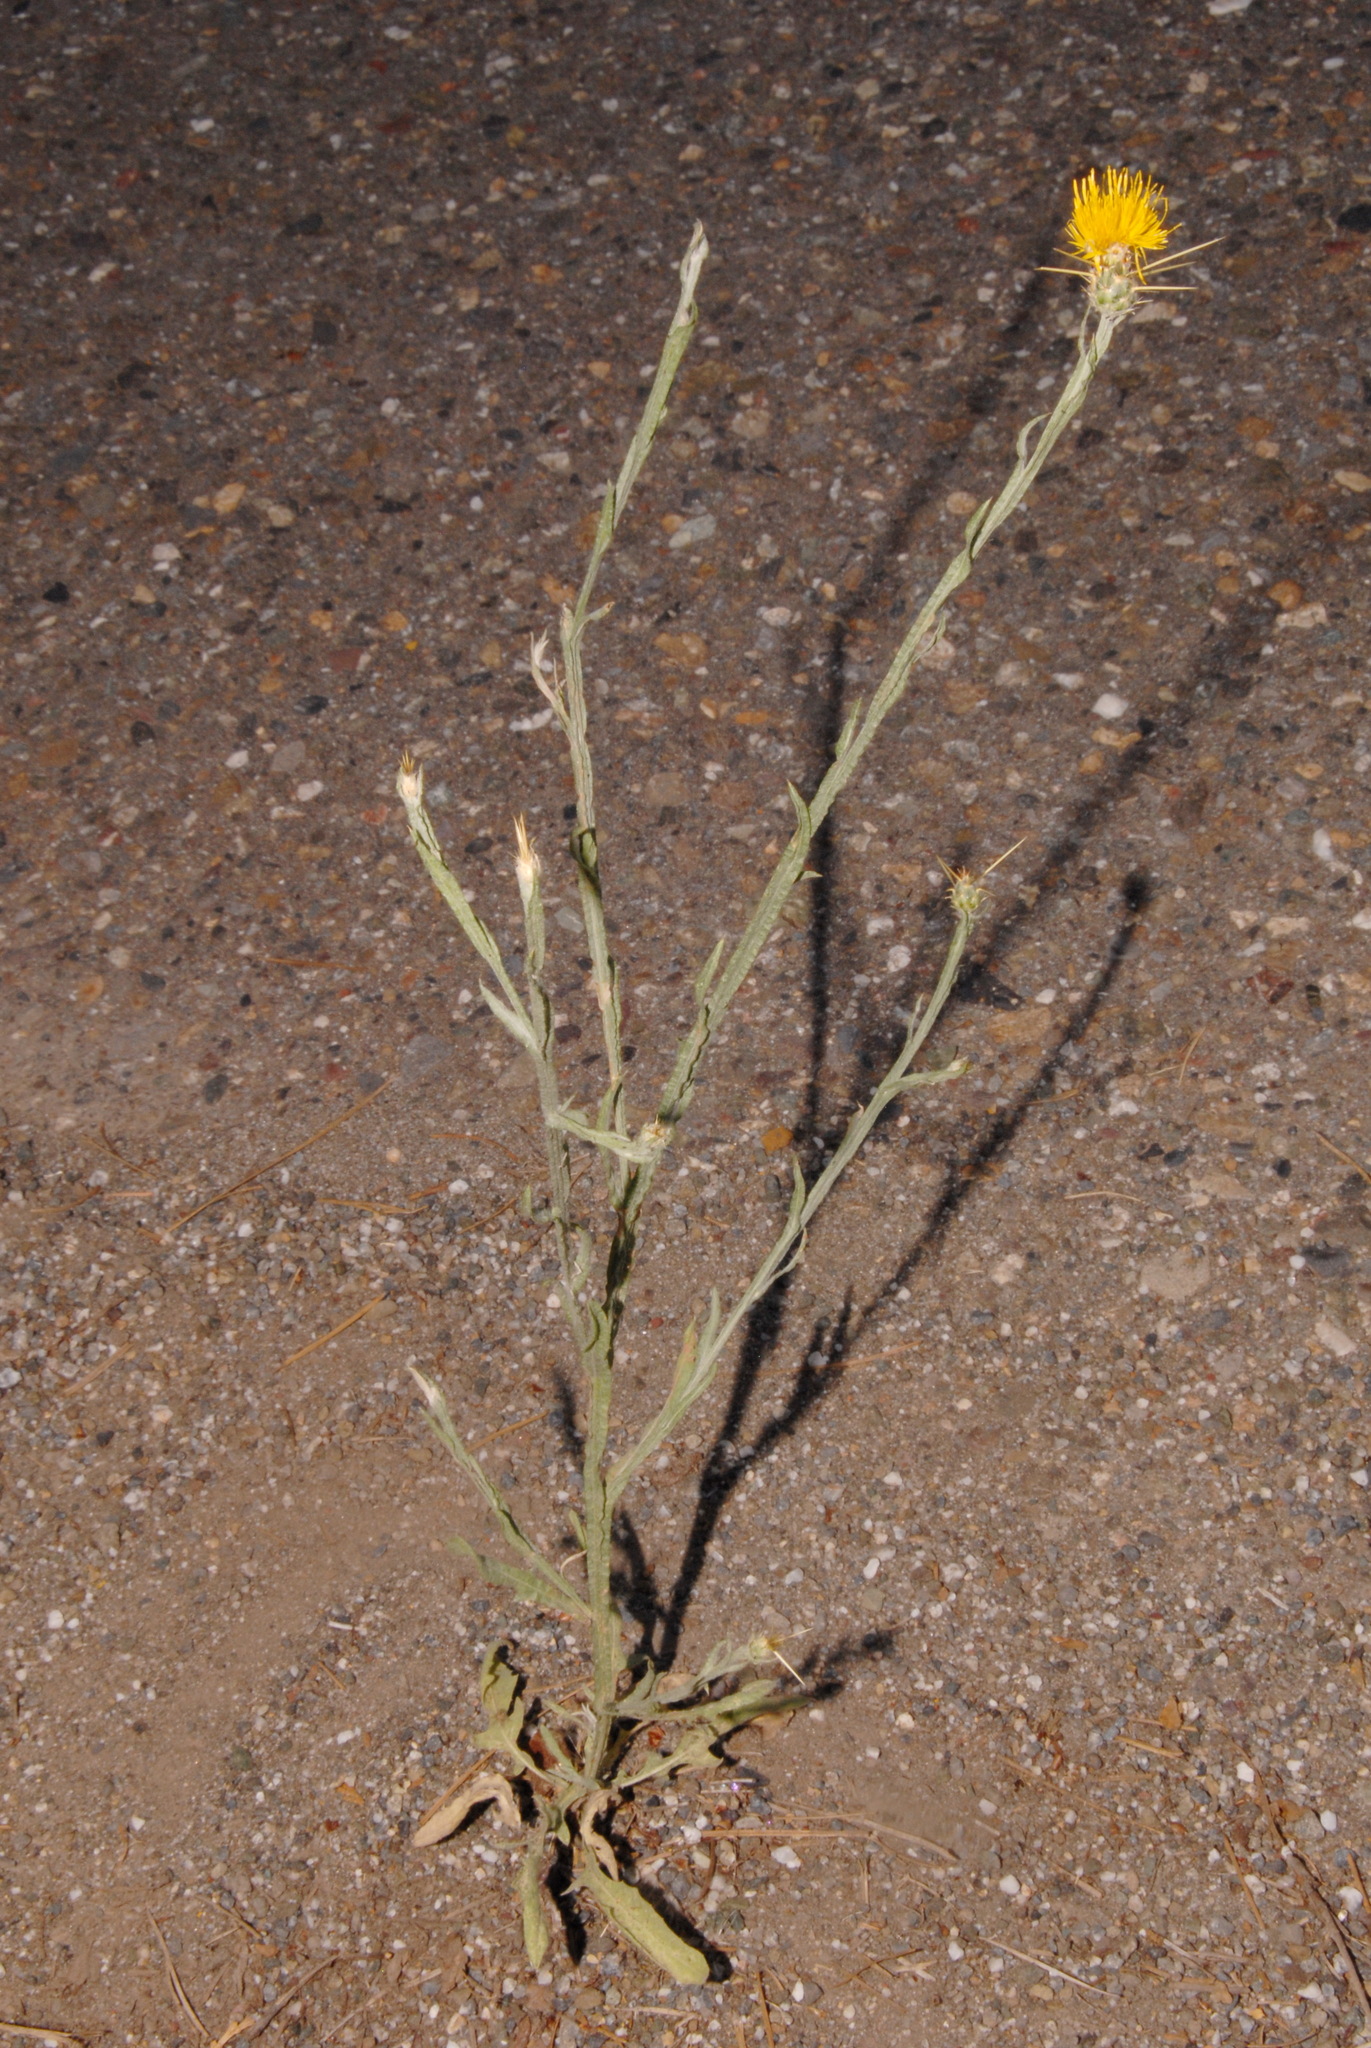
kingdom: Plantae
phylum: Tracheophyta
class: Magnoliopsida
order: Asterales
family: Asteraceae
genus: Centaurea
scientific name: Centaurea solstitialis
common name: Yellow star-thistle
